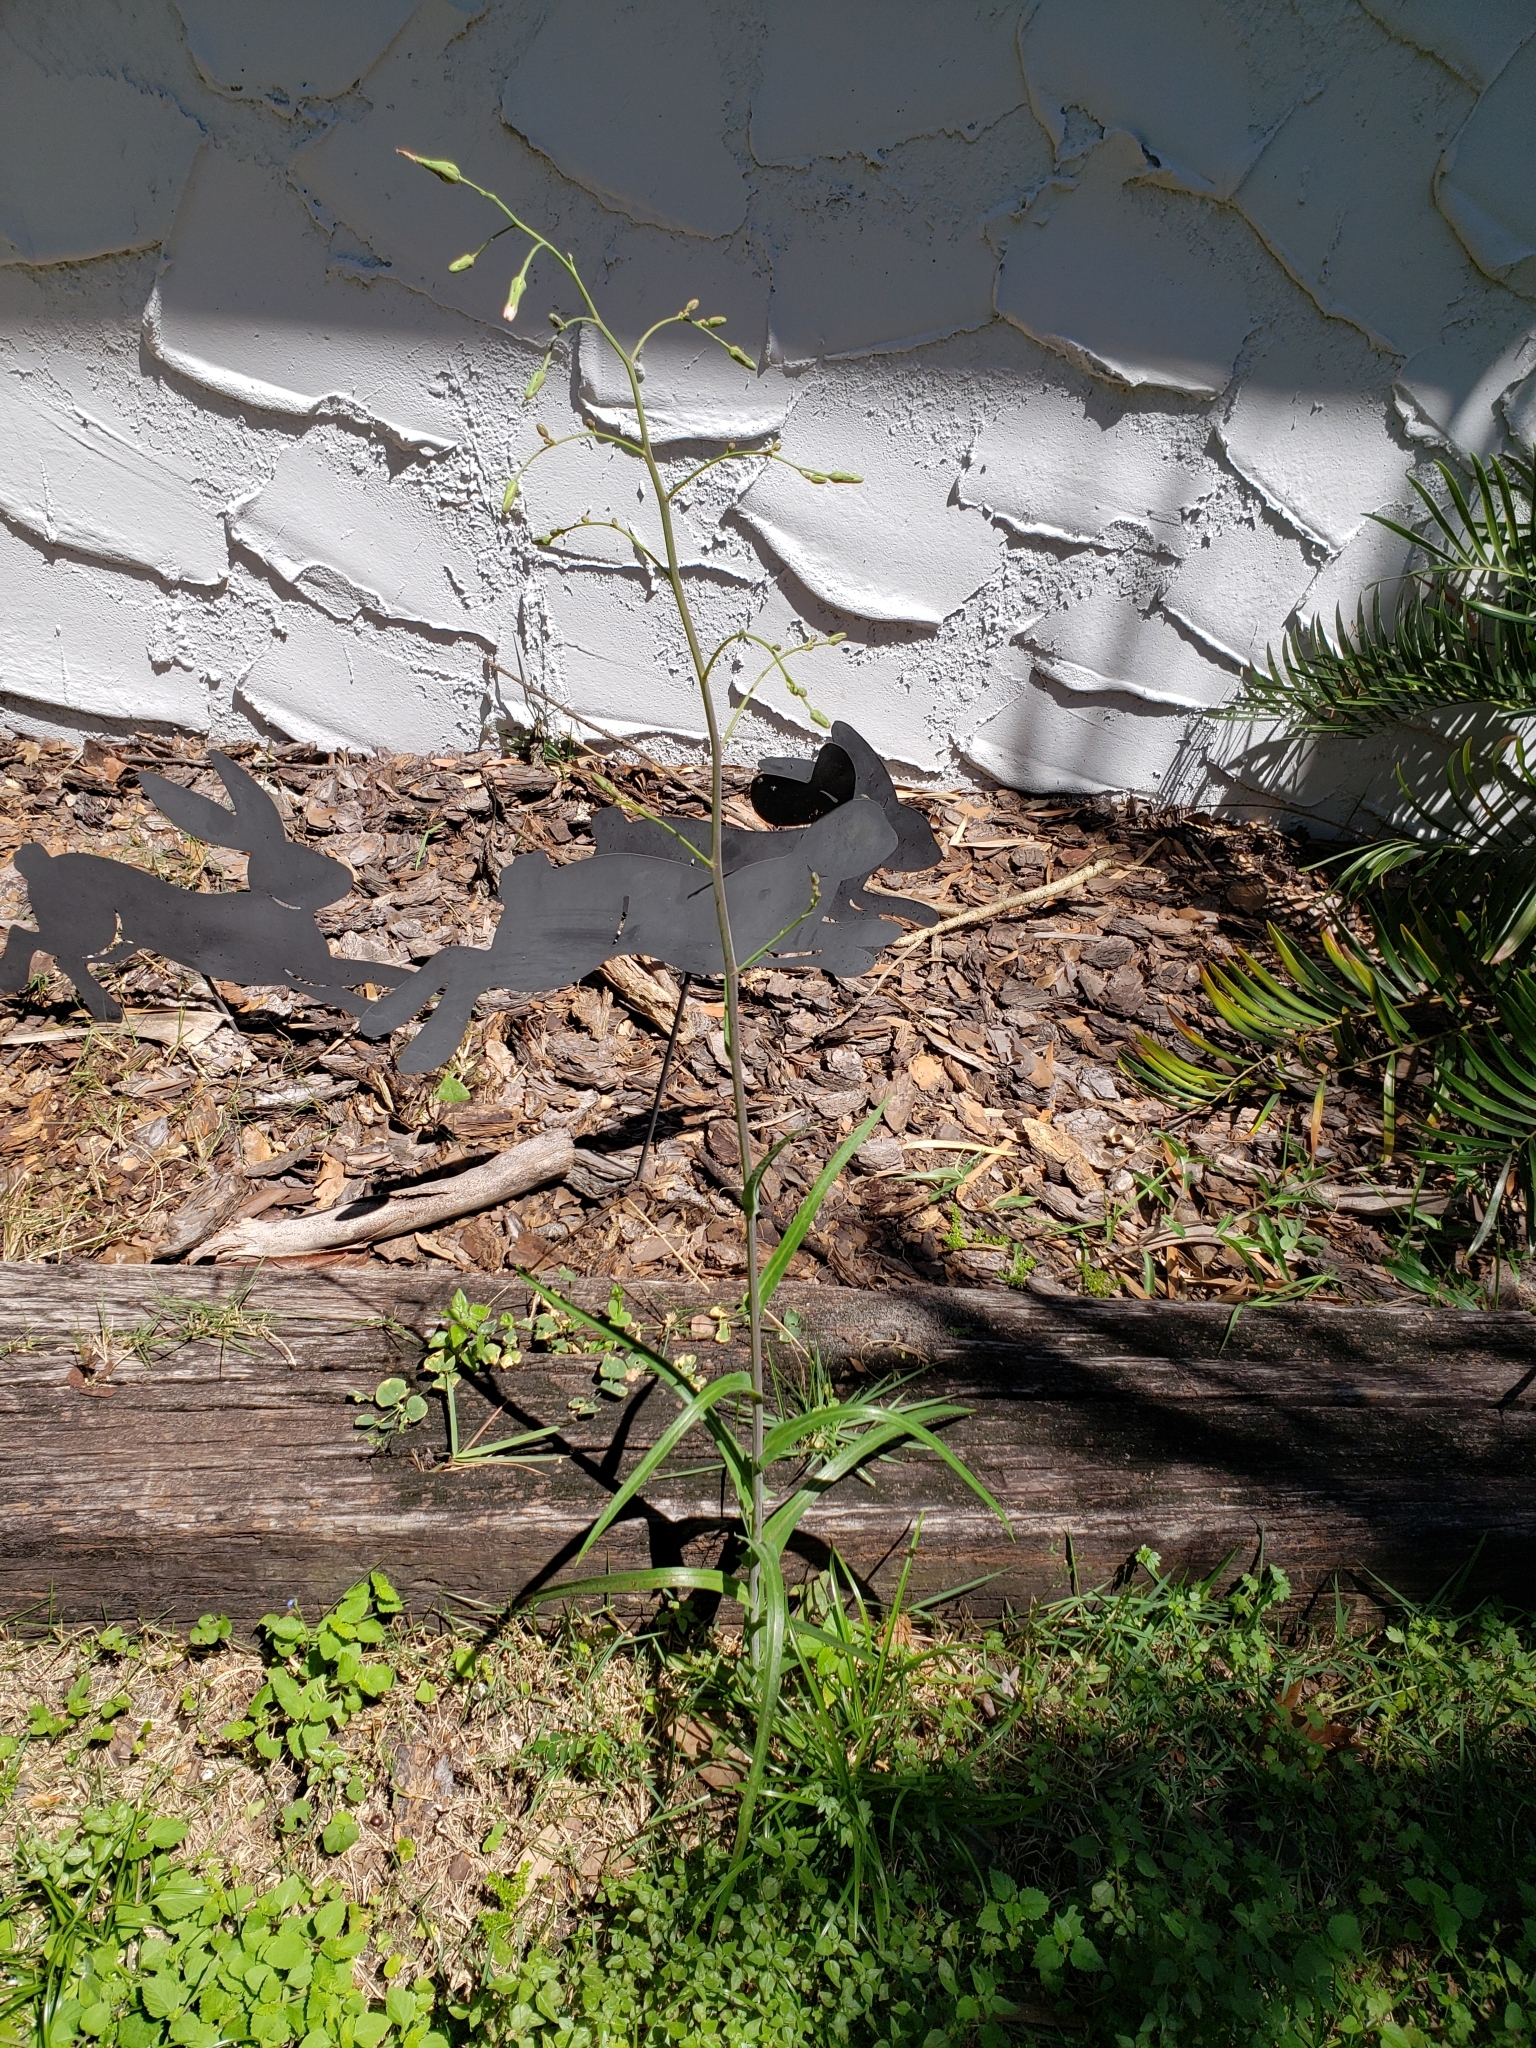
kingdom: Plantae
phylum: Tracheophyta
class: Magnoliopsida
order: Asterales
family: Asteraceae
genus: Lactuca
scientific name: Lactuca graminifolia
